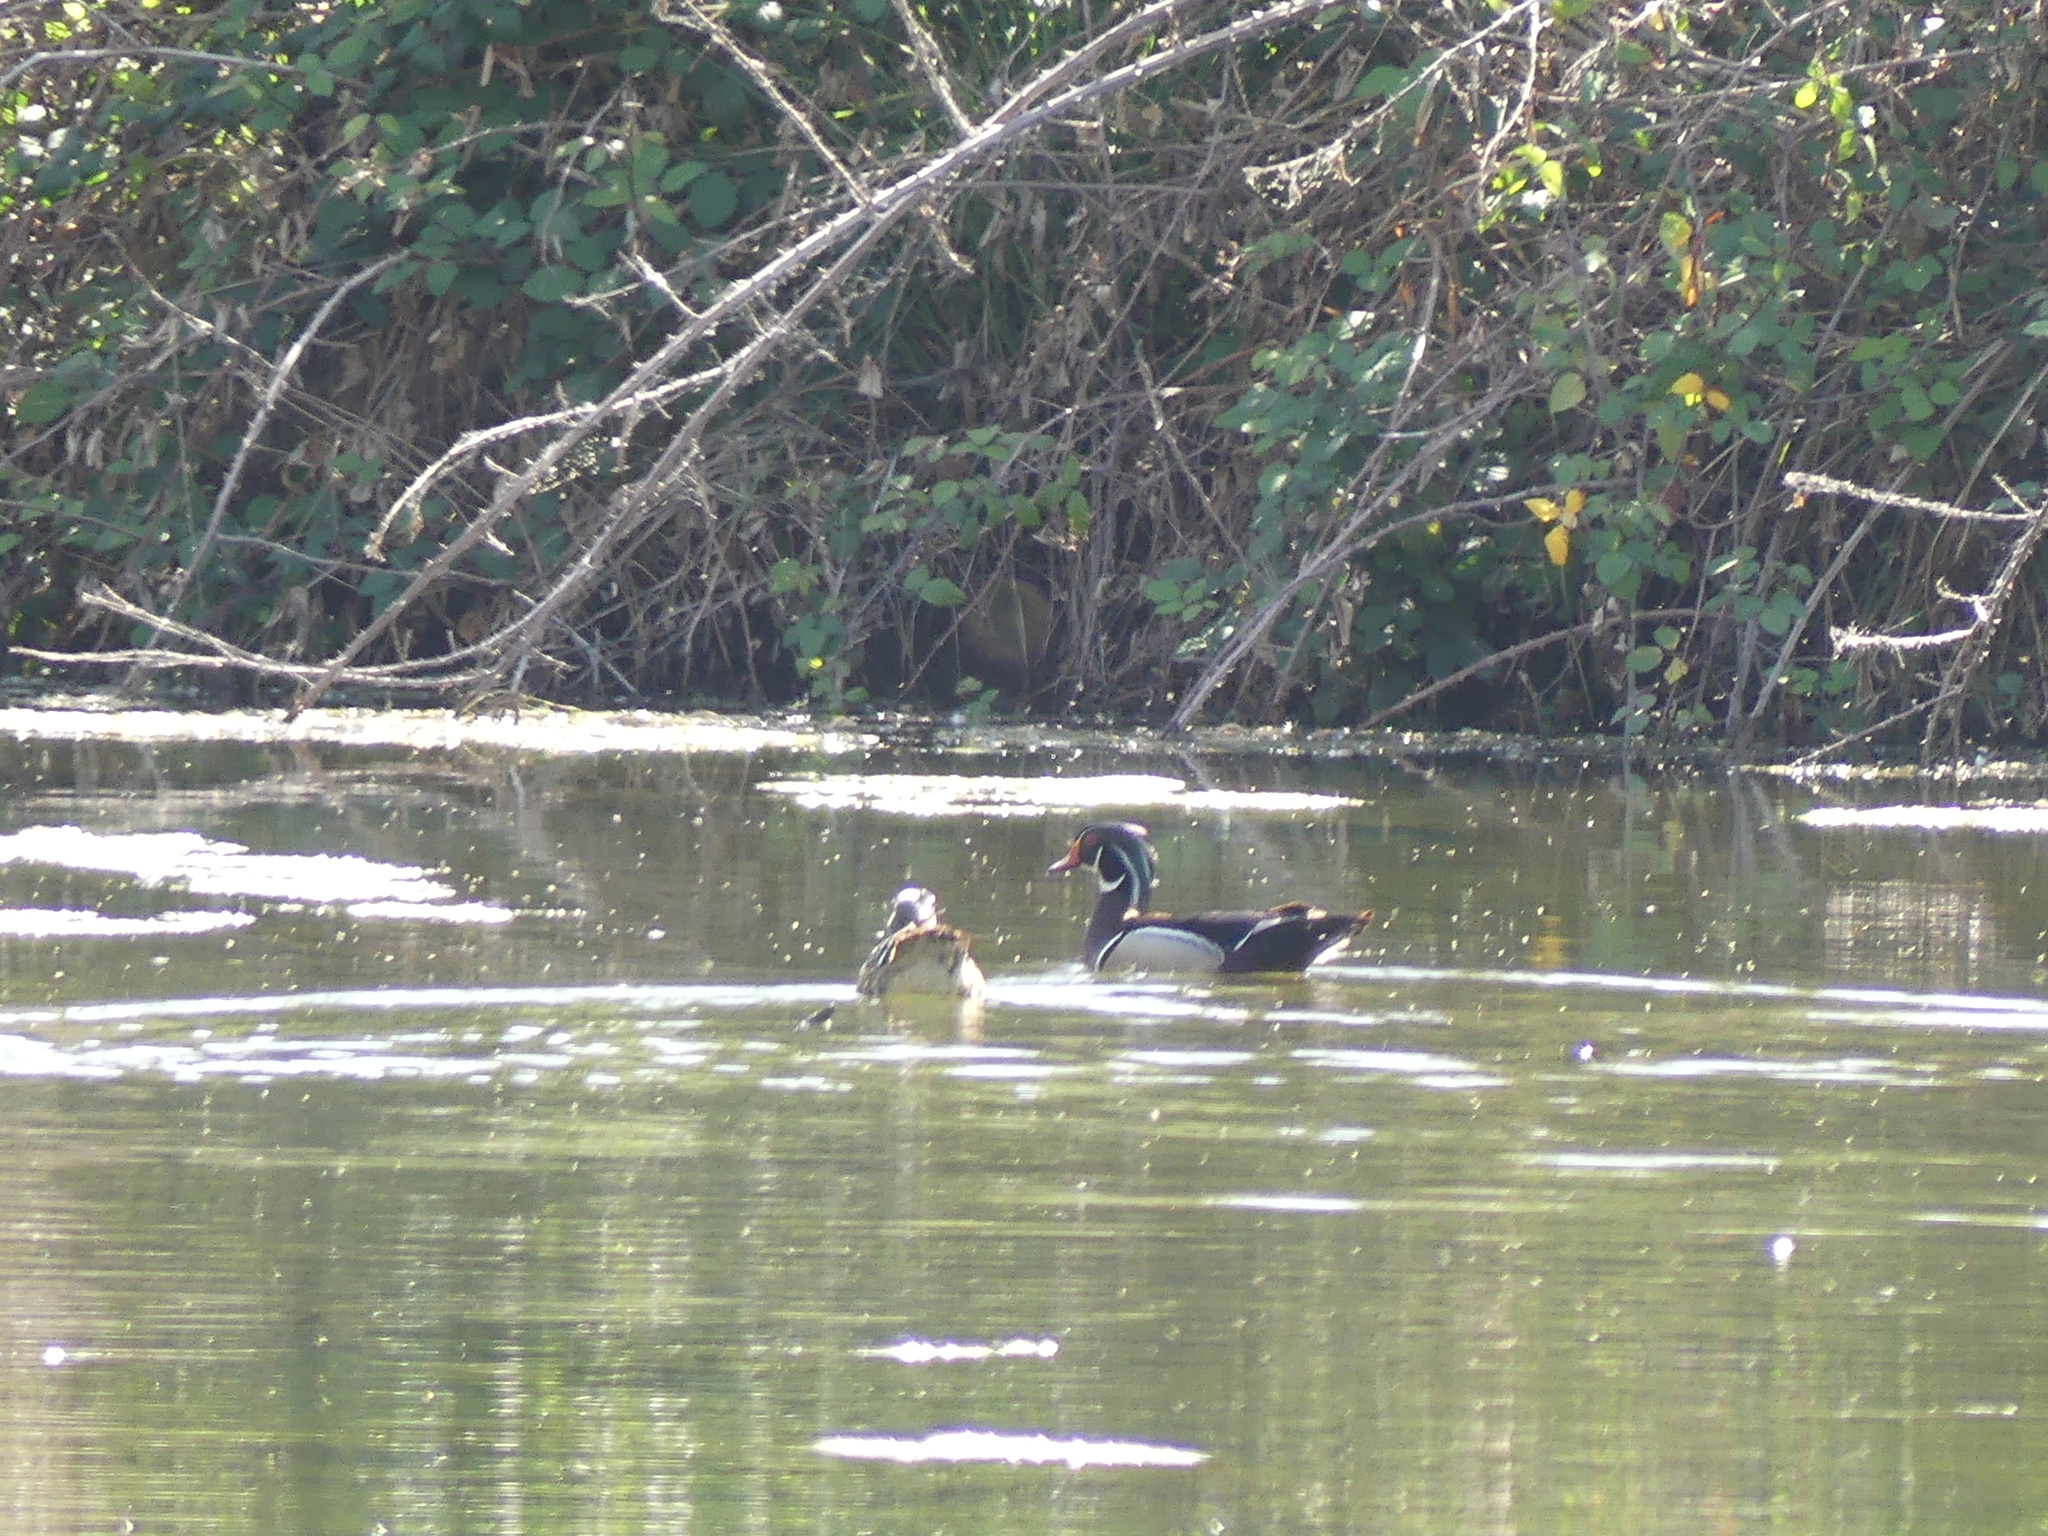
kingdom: Animalia
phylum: Chordata
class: Aves
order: Anseriformes
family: Anatidae
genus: Aix
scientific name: Aix sponsa
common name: Wood duck
